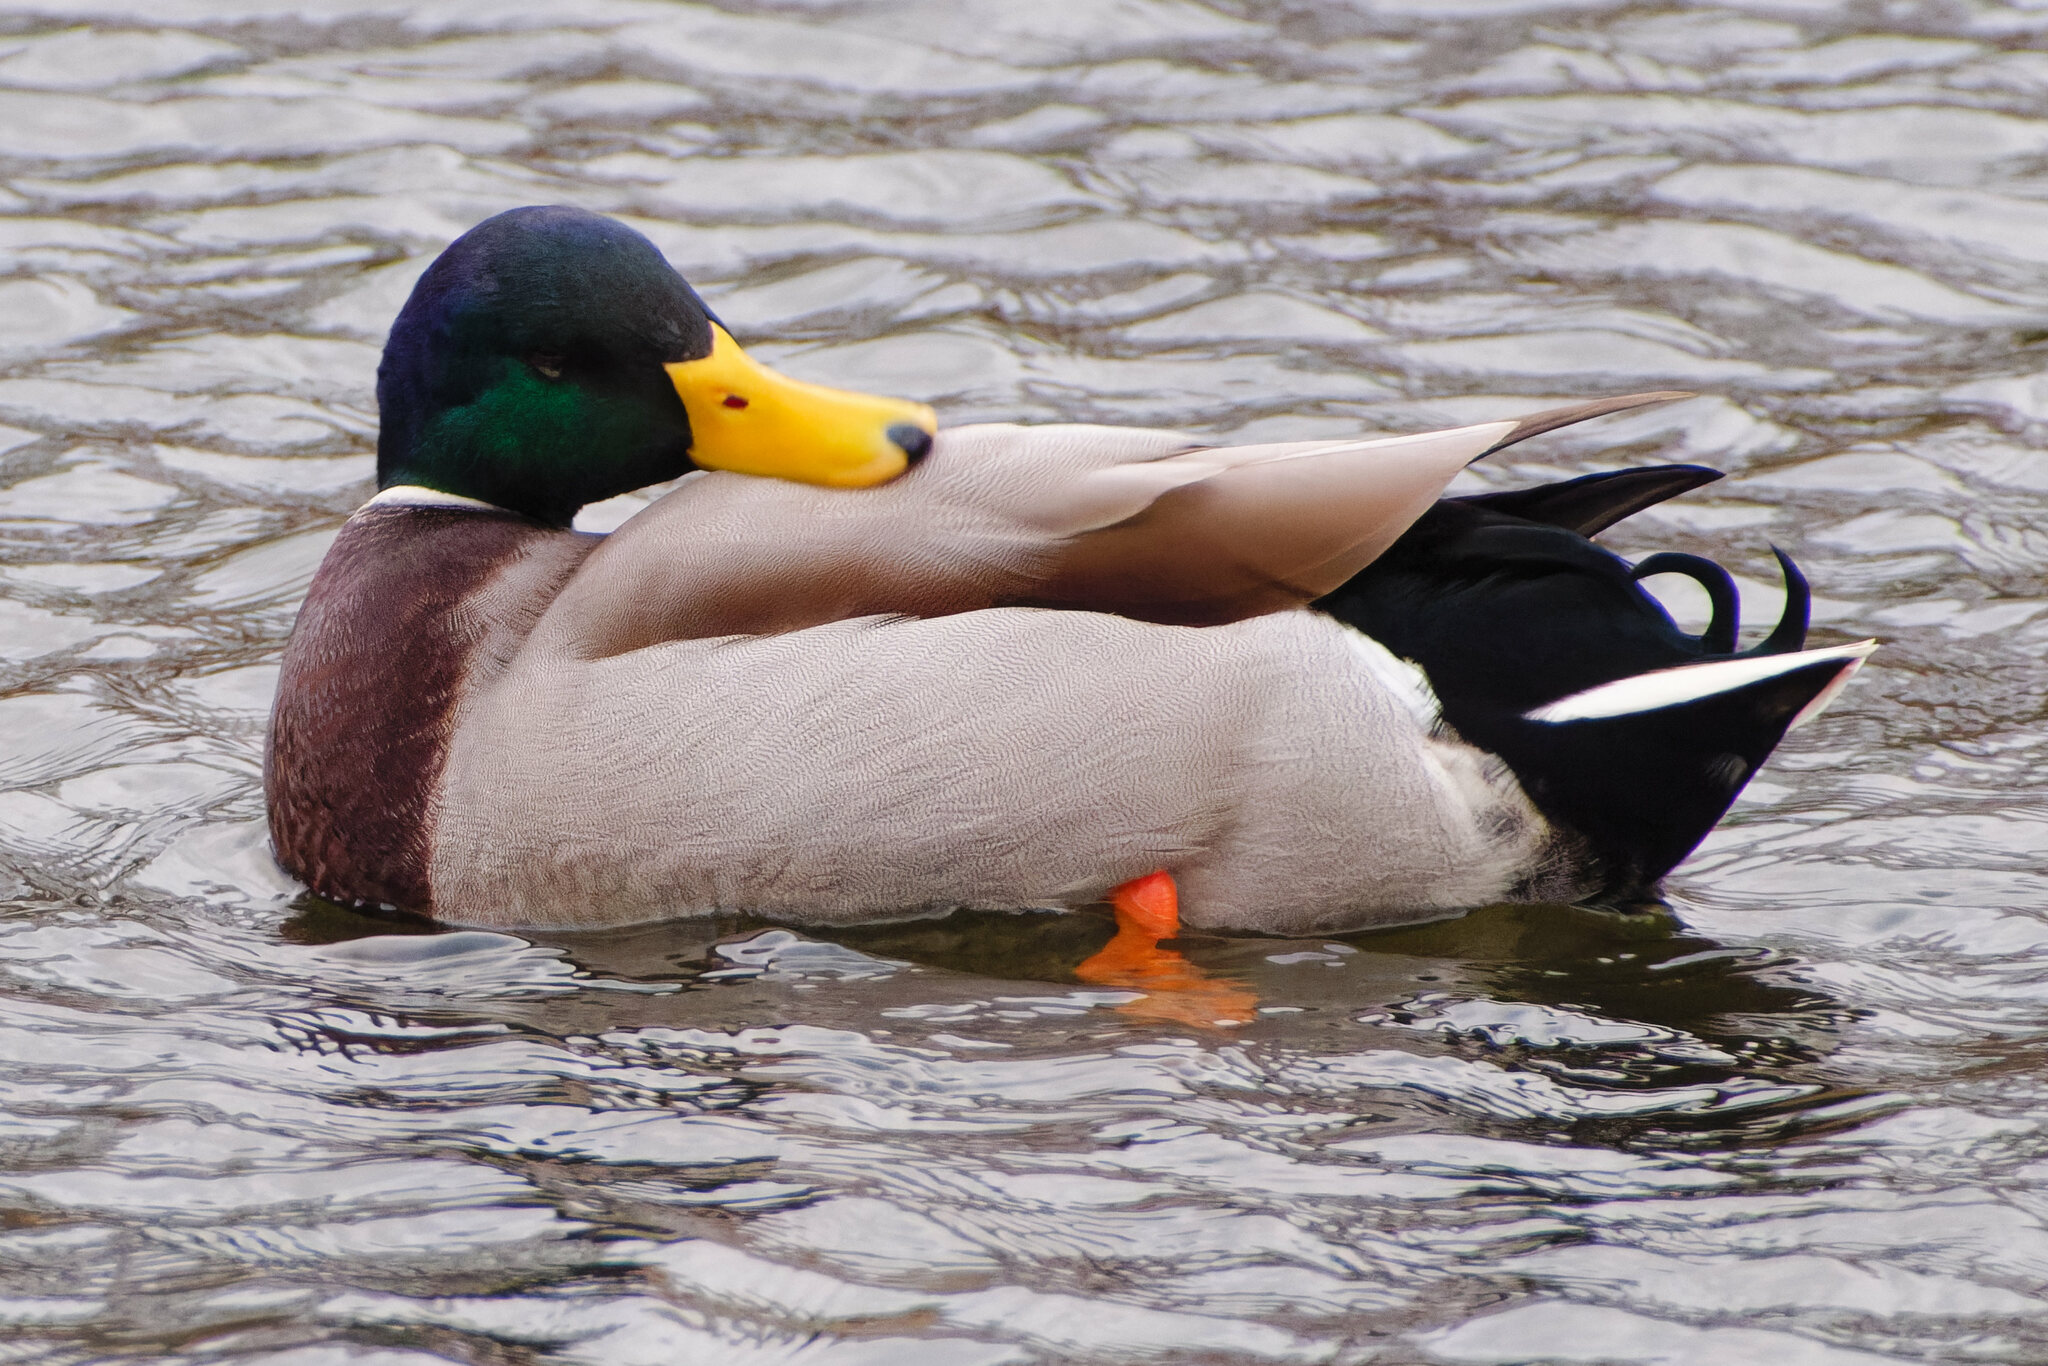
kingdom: Animalia
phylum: Chordata
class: Aves
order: Anseriformes
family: Anatidae
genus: Anas
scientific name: Anas platyrhynchos
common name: Mallard
